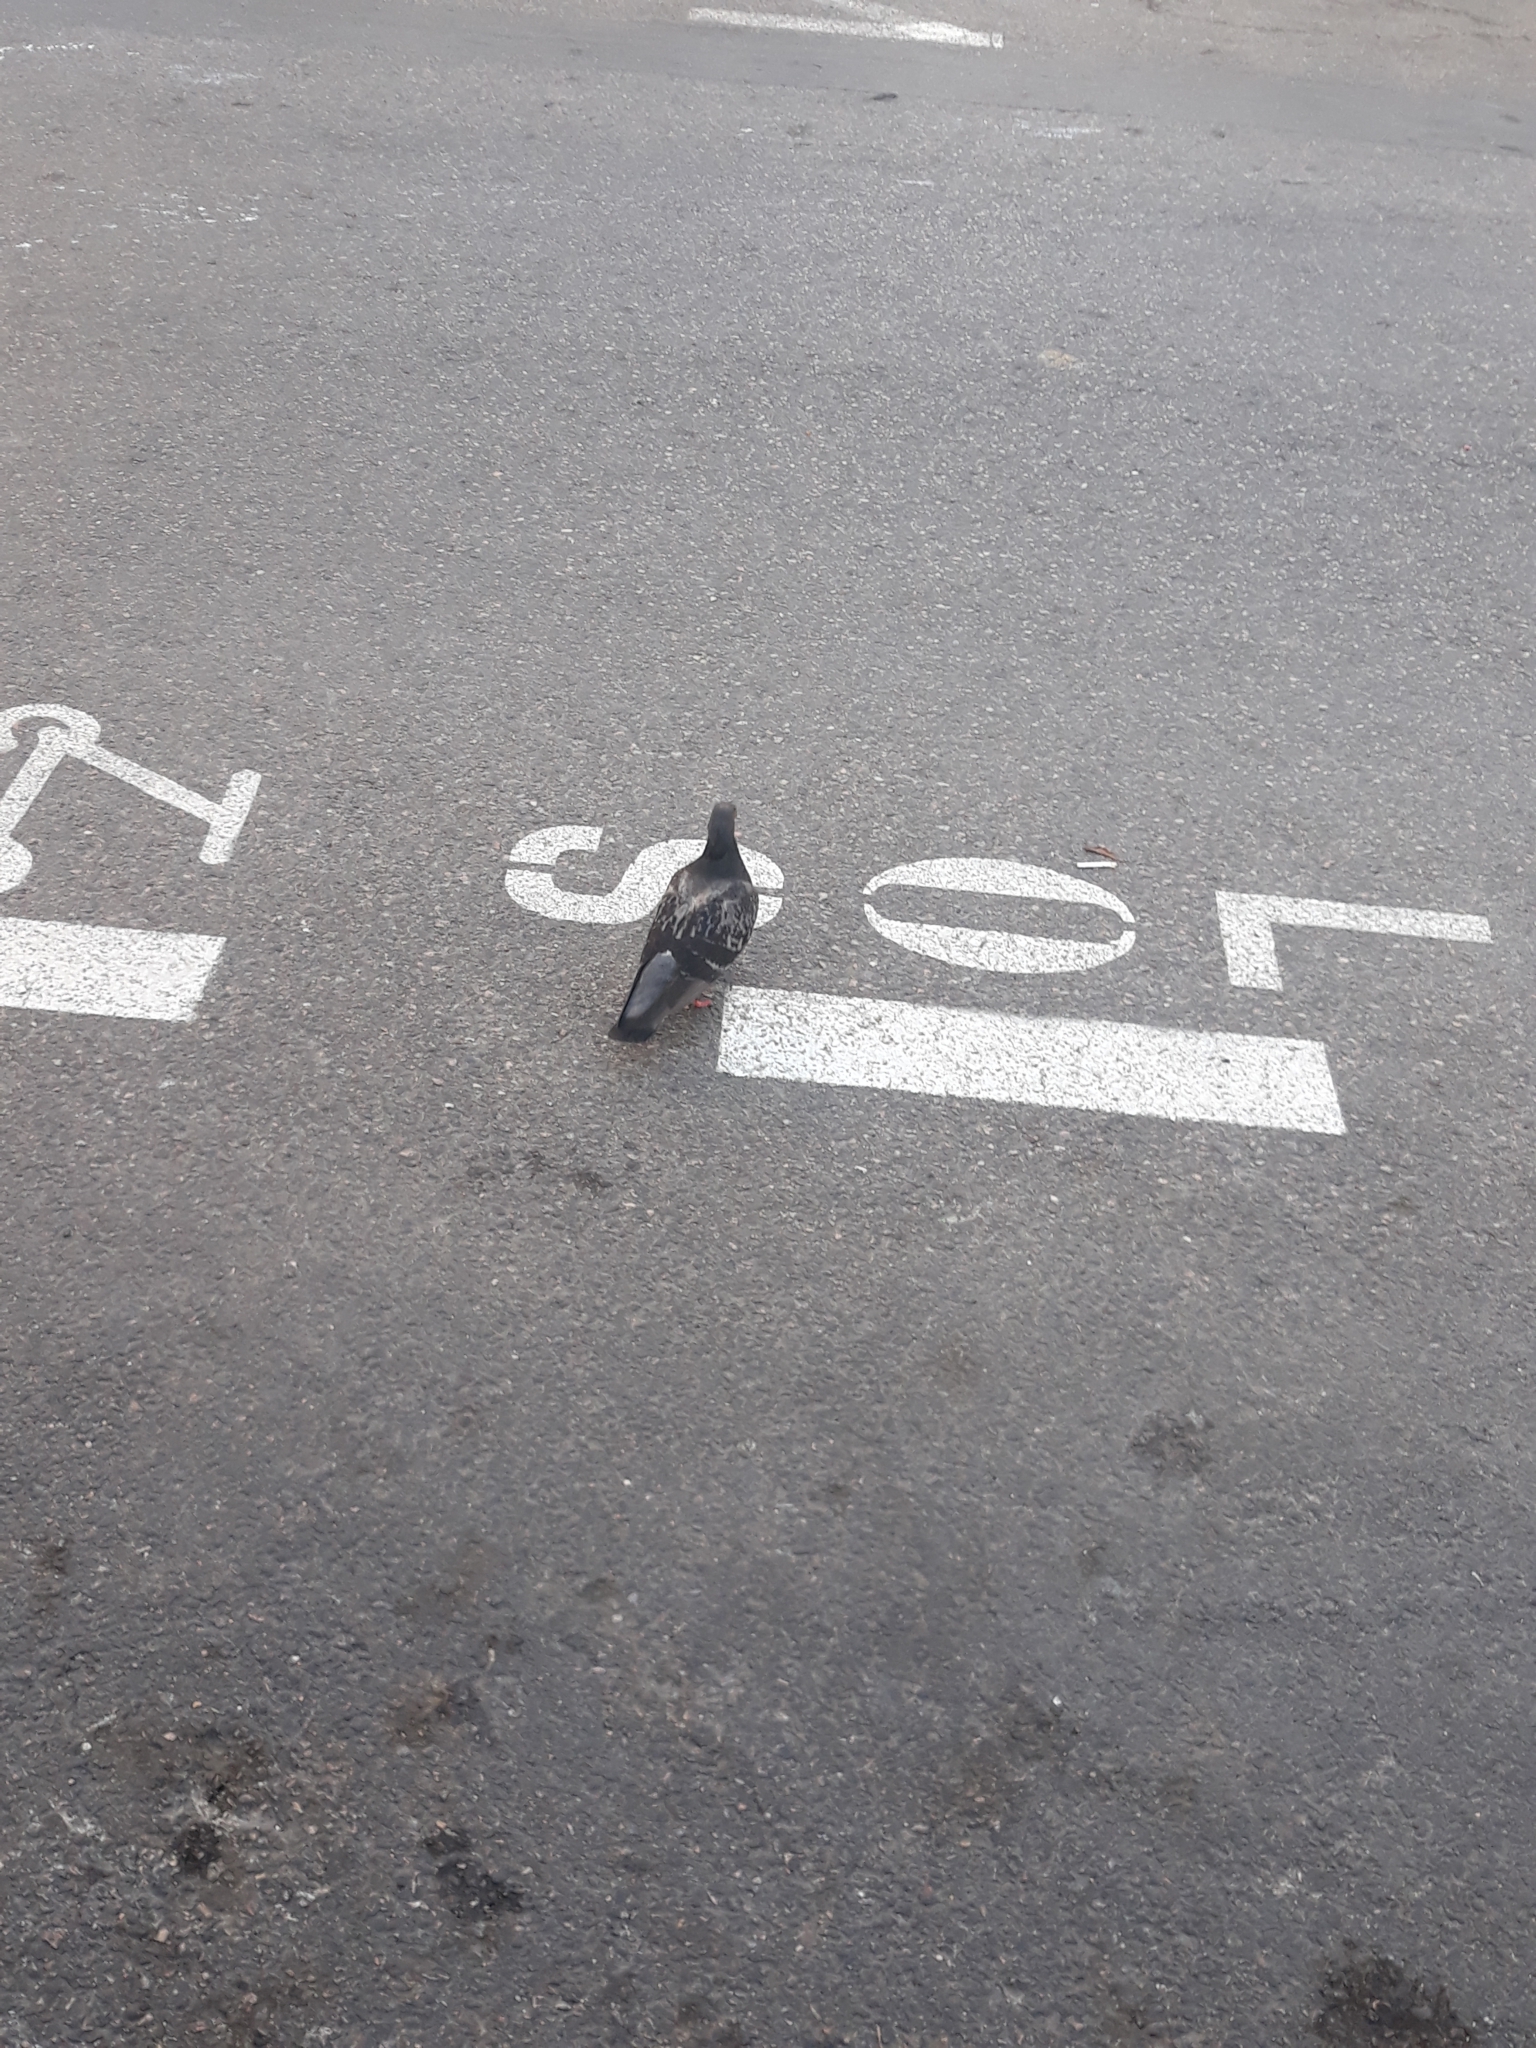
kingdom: Animalia
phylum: Chordata
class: Aves
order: Columbiformes
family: Columbidae
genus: Columba
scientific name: Columba livia
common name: Rock pigeon
